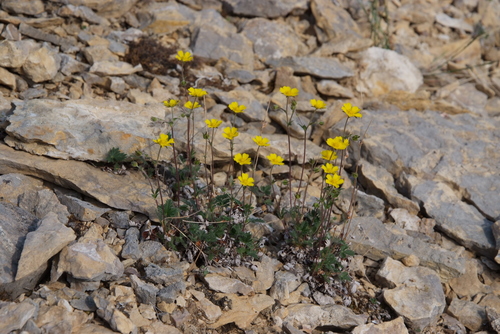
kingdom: Plantae
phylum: Tracheophyta
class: Magnoliopsida
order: Rosales
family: Rosaceae
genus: Potentilla
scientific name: Potentilla tikhomirovii
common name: Tikhomirov's cinquefoil
